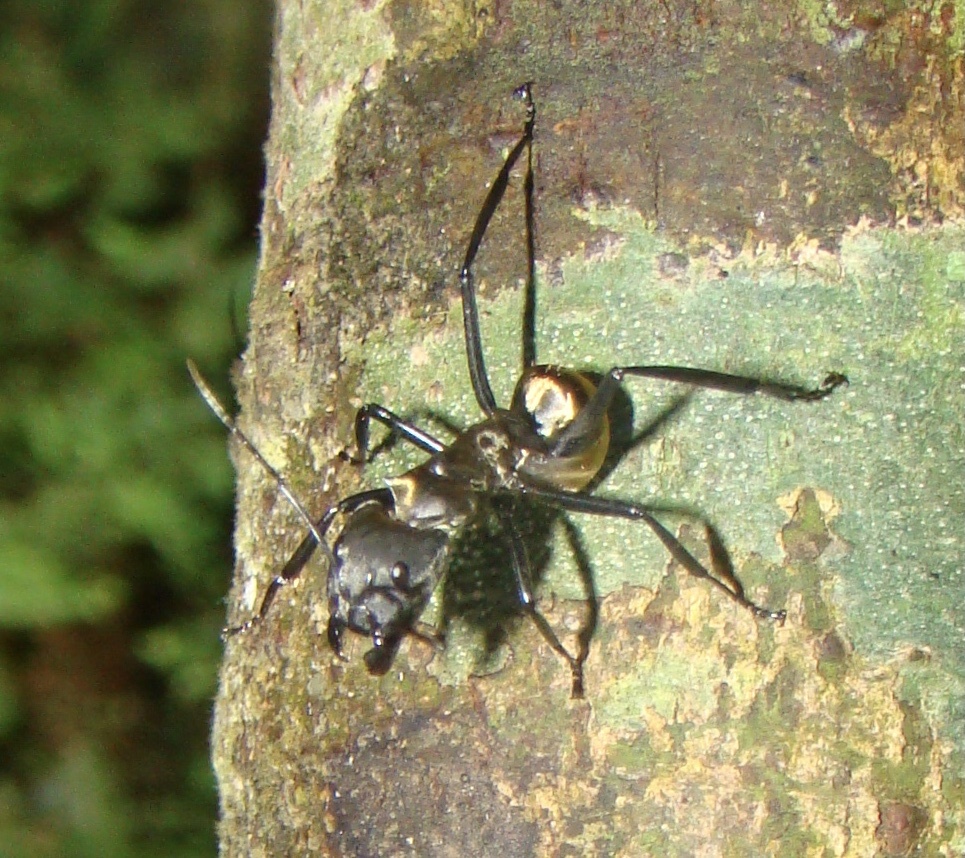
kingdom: Animalia
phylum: Arthropoda
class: Insecta
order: Hymenoptera
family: Formicidae
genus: Camponotus
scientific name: Camponotus sericeiventris
